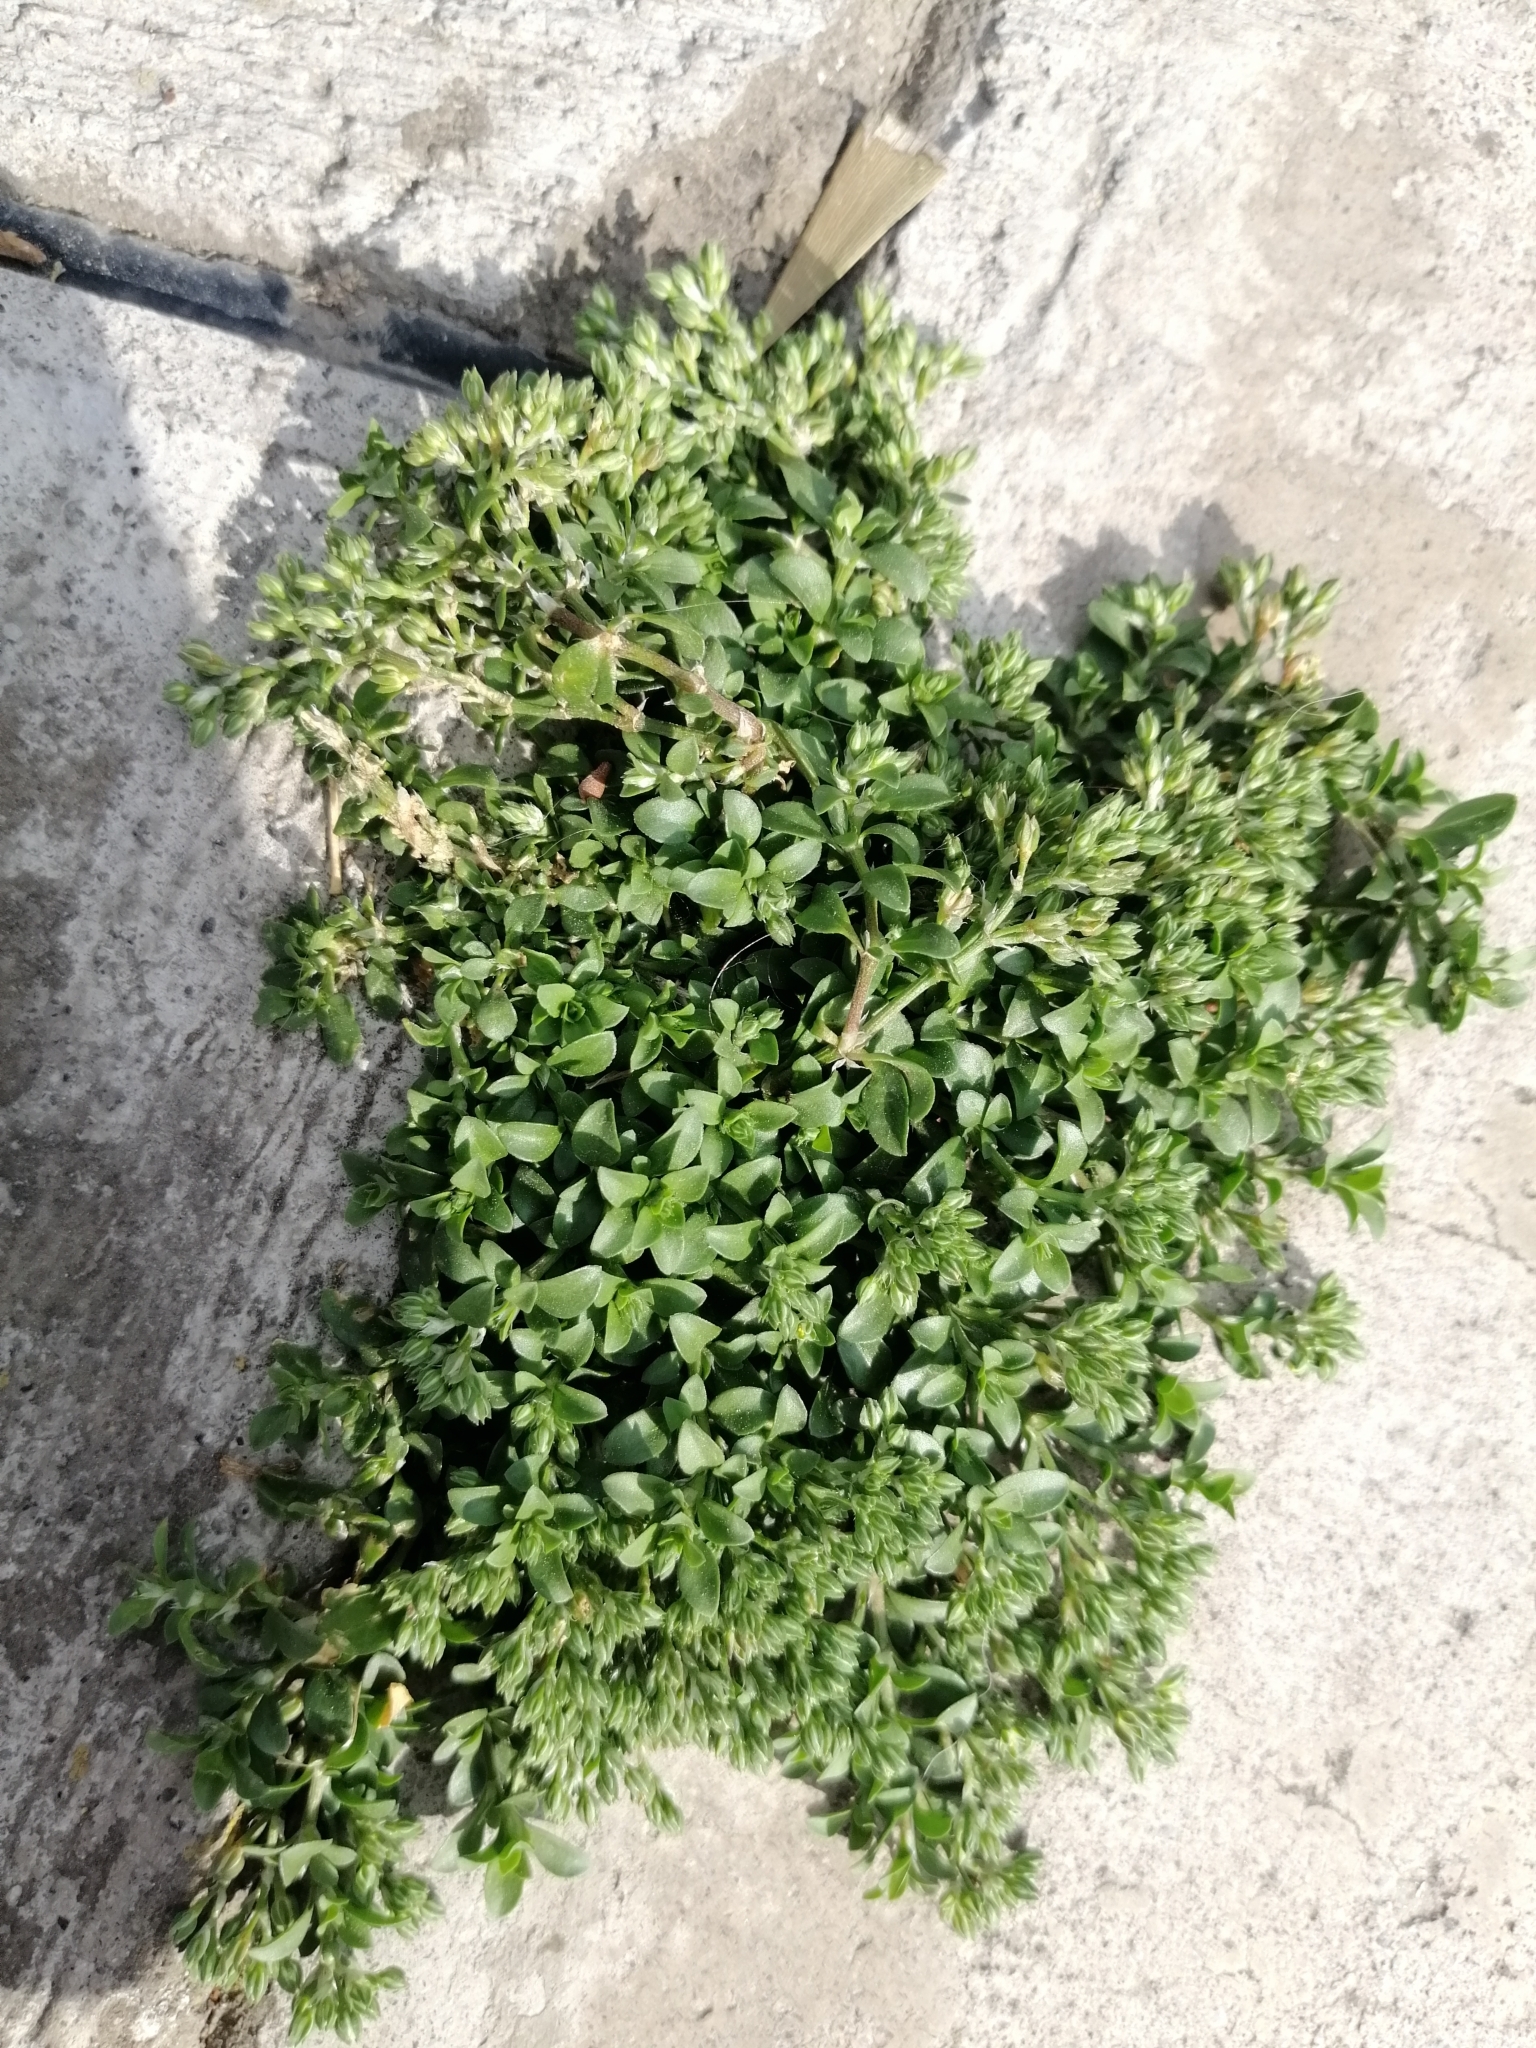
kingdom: Plantae
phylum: Tracheophyta
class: Magnoliopsida
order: Caryophyllales
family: Caryophyllaceae
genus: Polycarpon
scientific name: Polycarpon tetraphyllum
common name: Four-leaved all-seed
